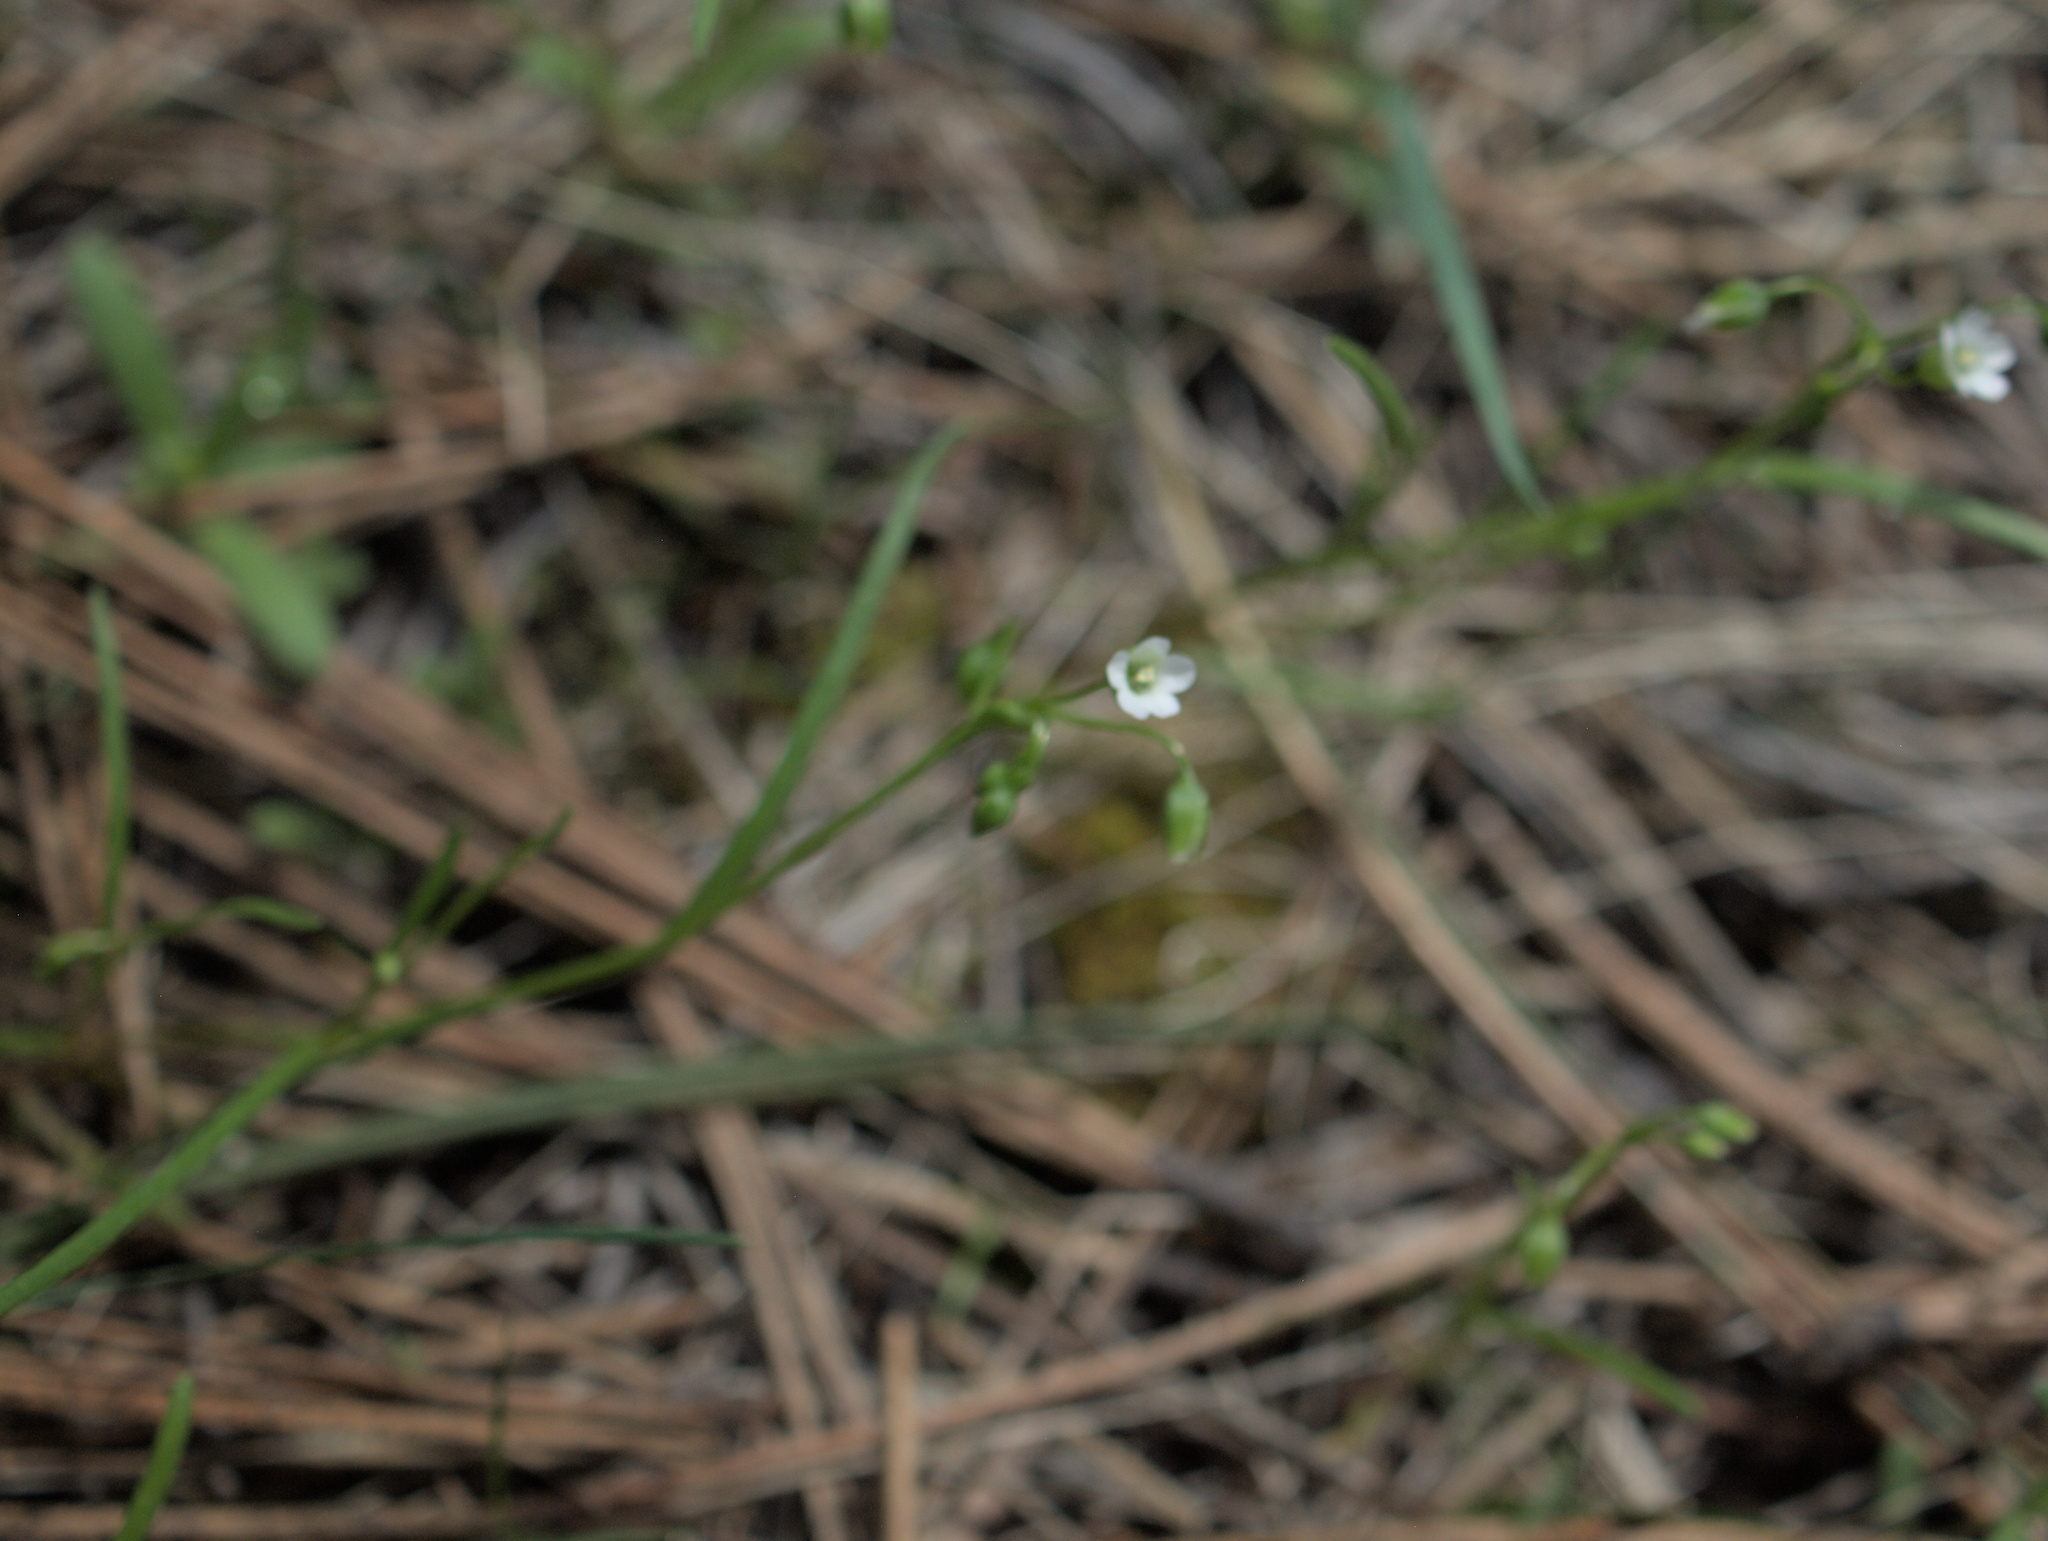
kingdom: Plantae
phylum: Tracheophyta
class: Magnoliopsida
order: Caryophyllales
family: Montiaceae
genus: Montia
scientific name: Montia linearis
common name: Narrow-leaf montia
